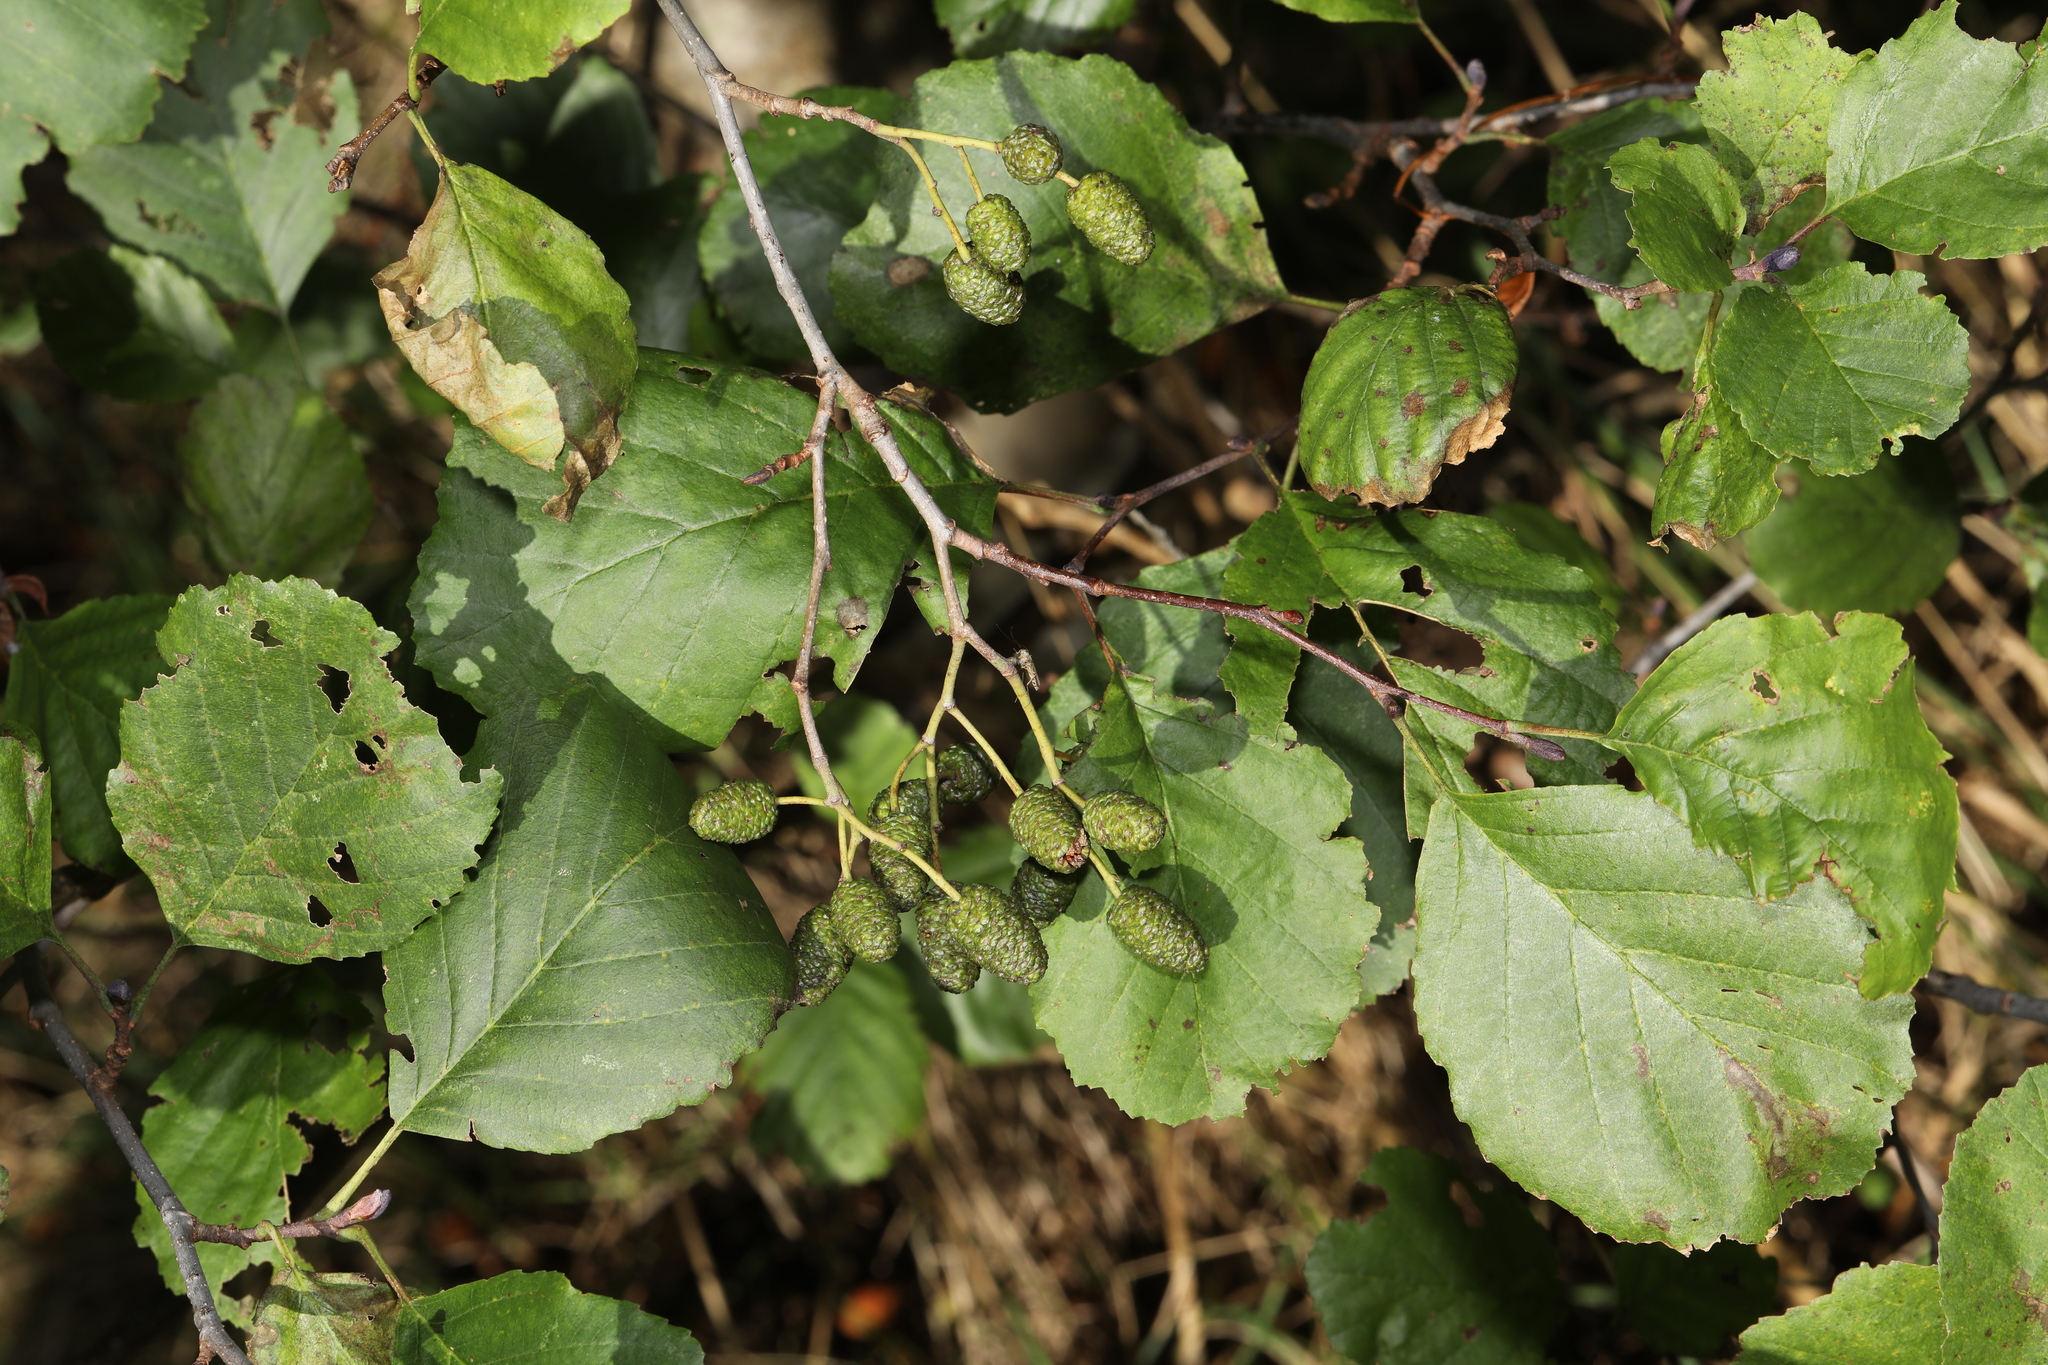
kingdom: Plantae
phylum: Tracheophyta
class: Magnoliopsida
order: Fagales
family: Betulaceae
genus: Alnus
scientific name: Alnus glutinosa
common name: Black alder
